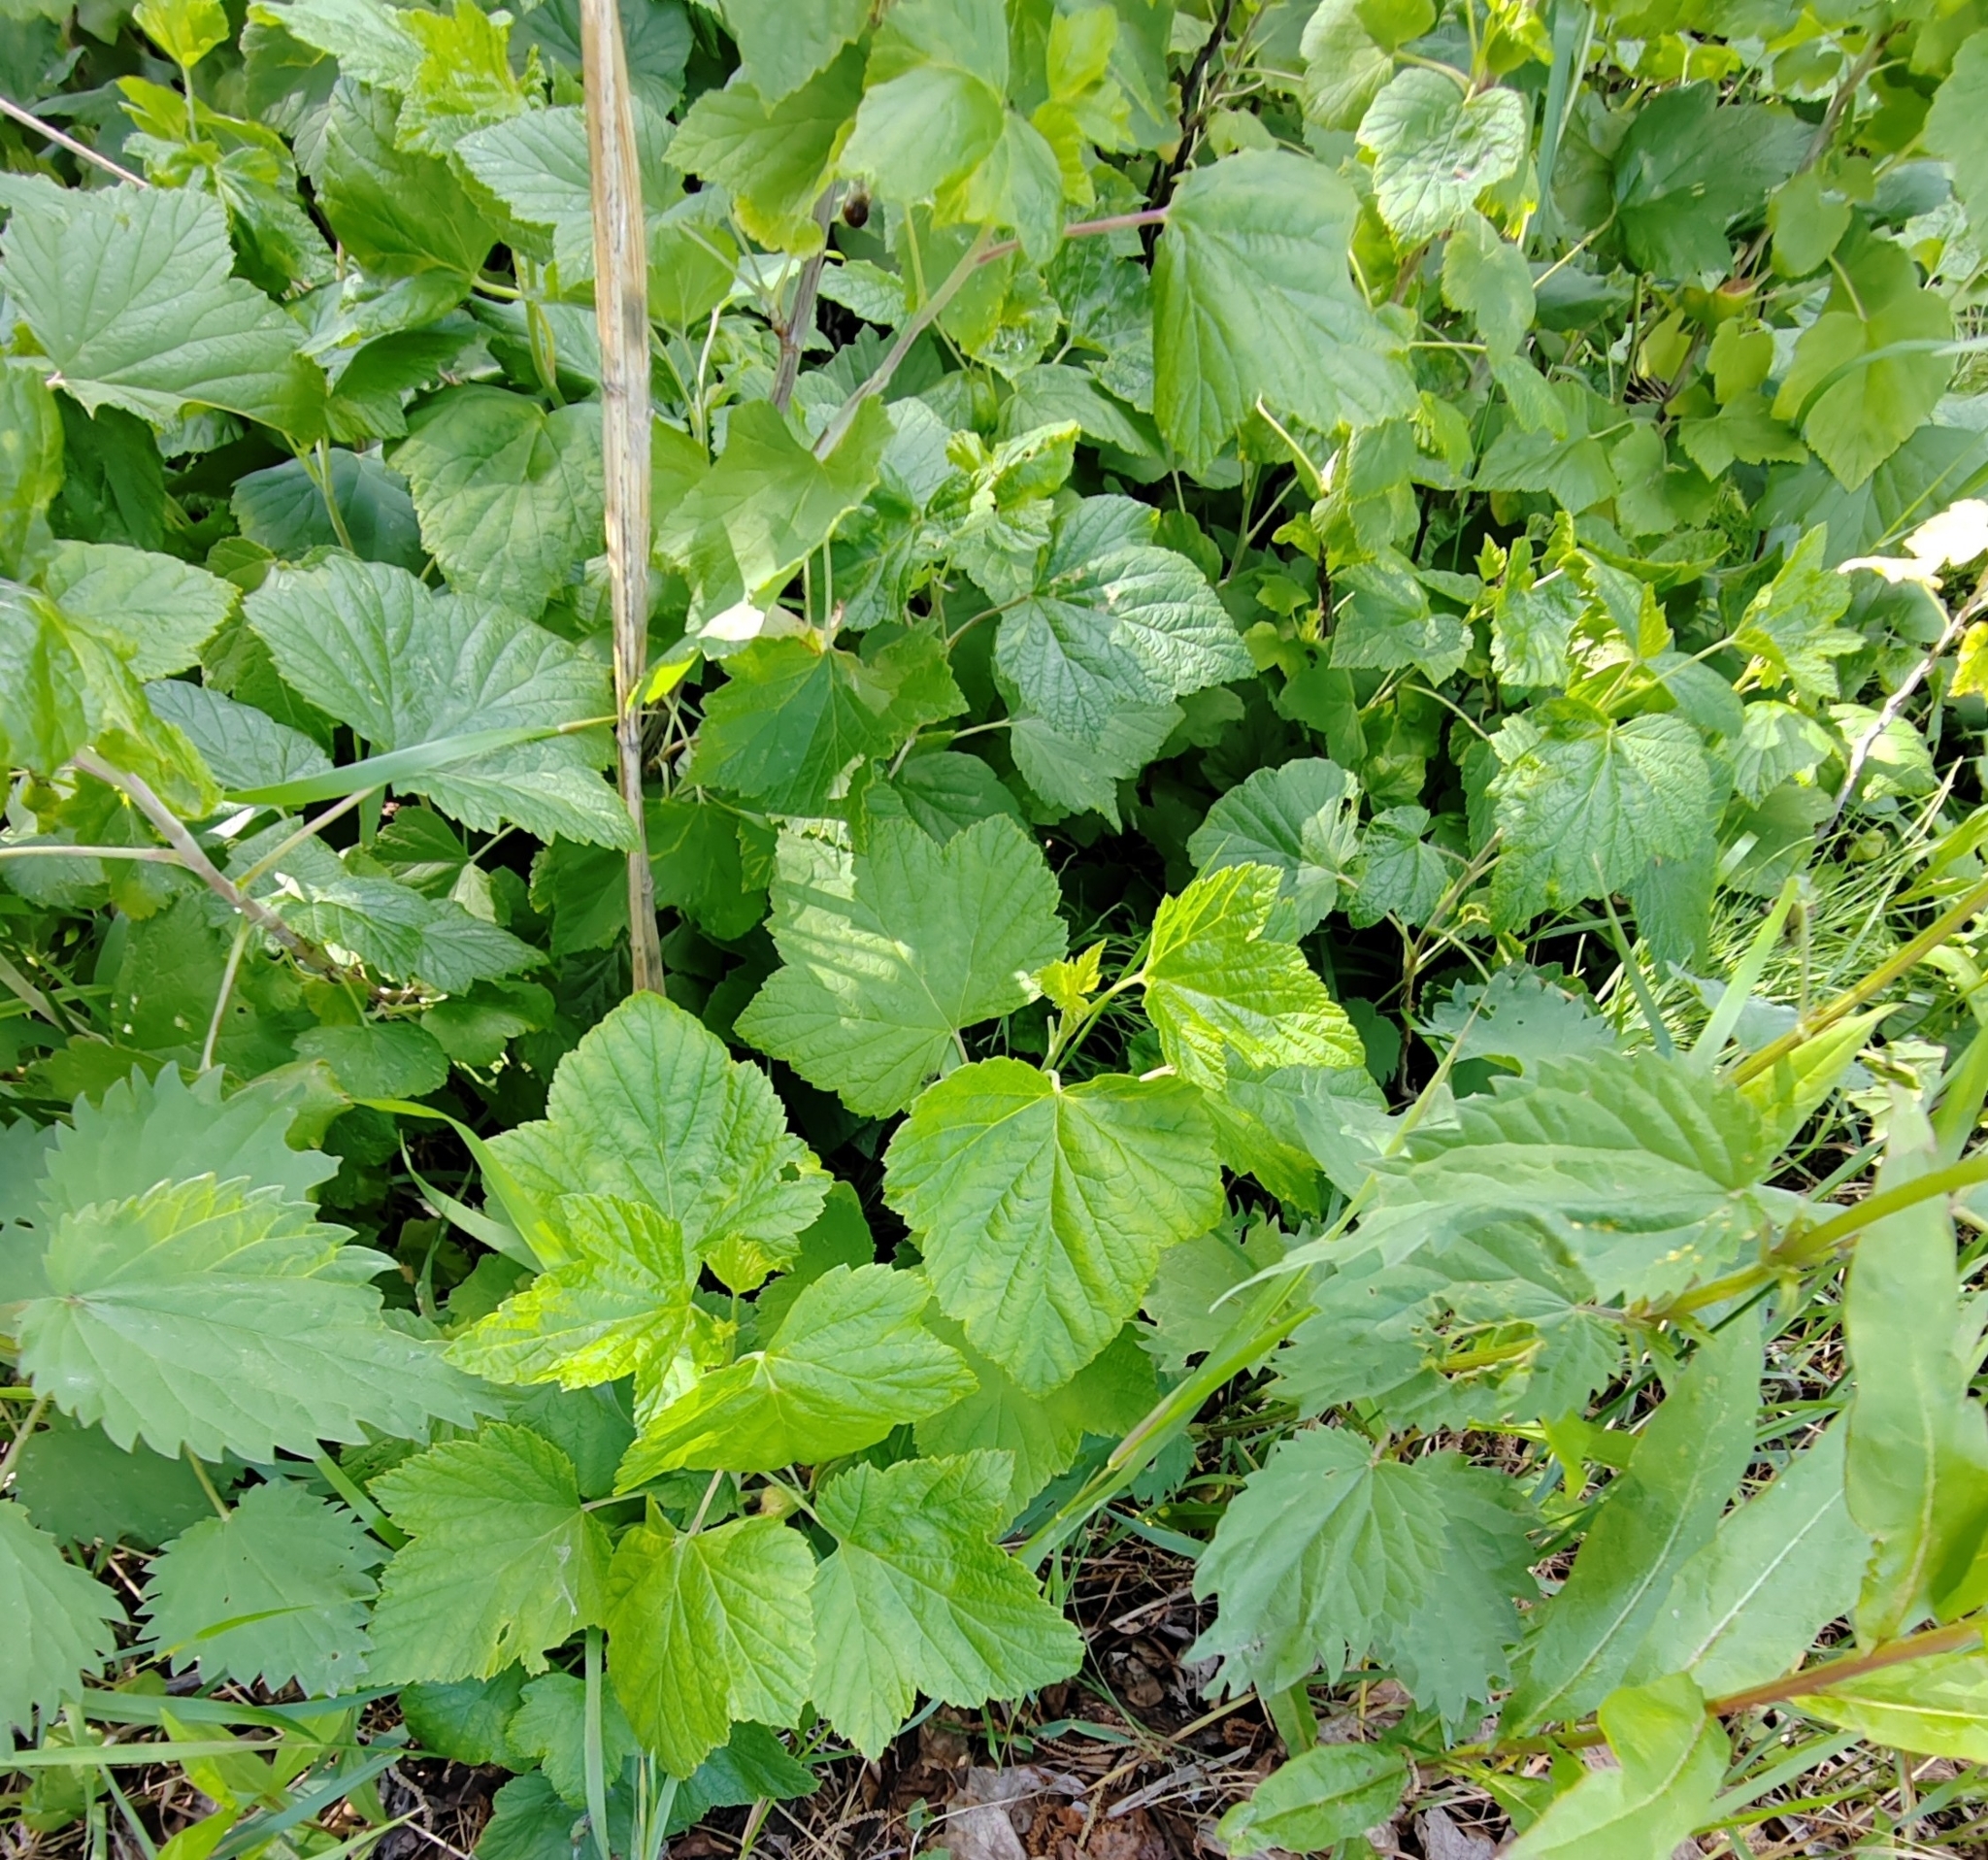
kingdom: Plantae
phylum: Tracheophyta
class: Magnoliopsida
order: Saxifragales
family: Grossulariaceae
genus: Ribes
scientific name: Ribes nigrum
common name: Black currant
